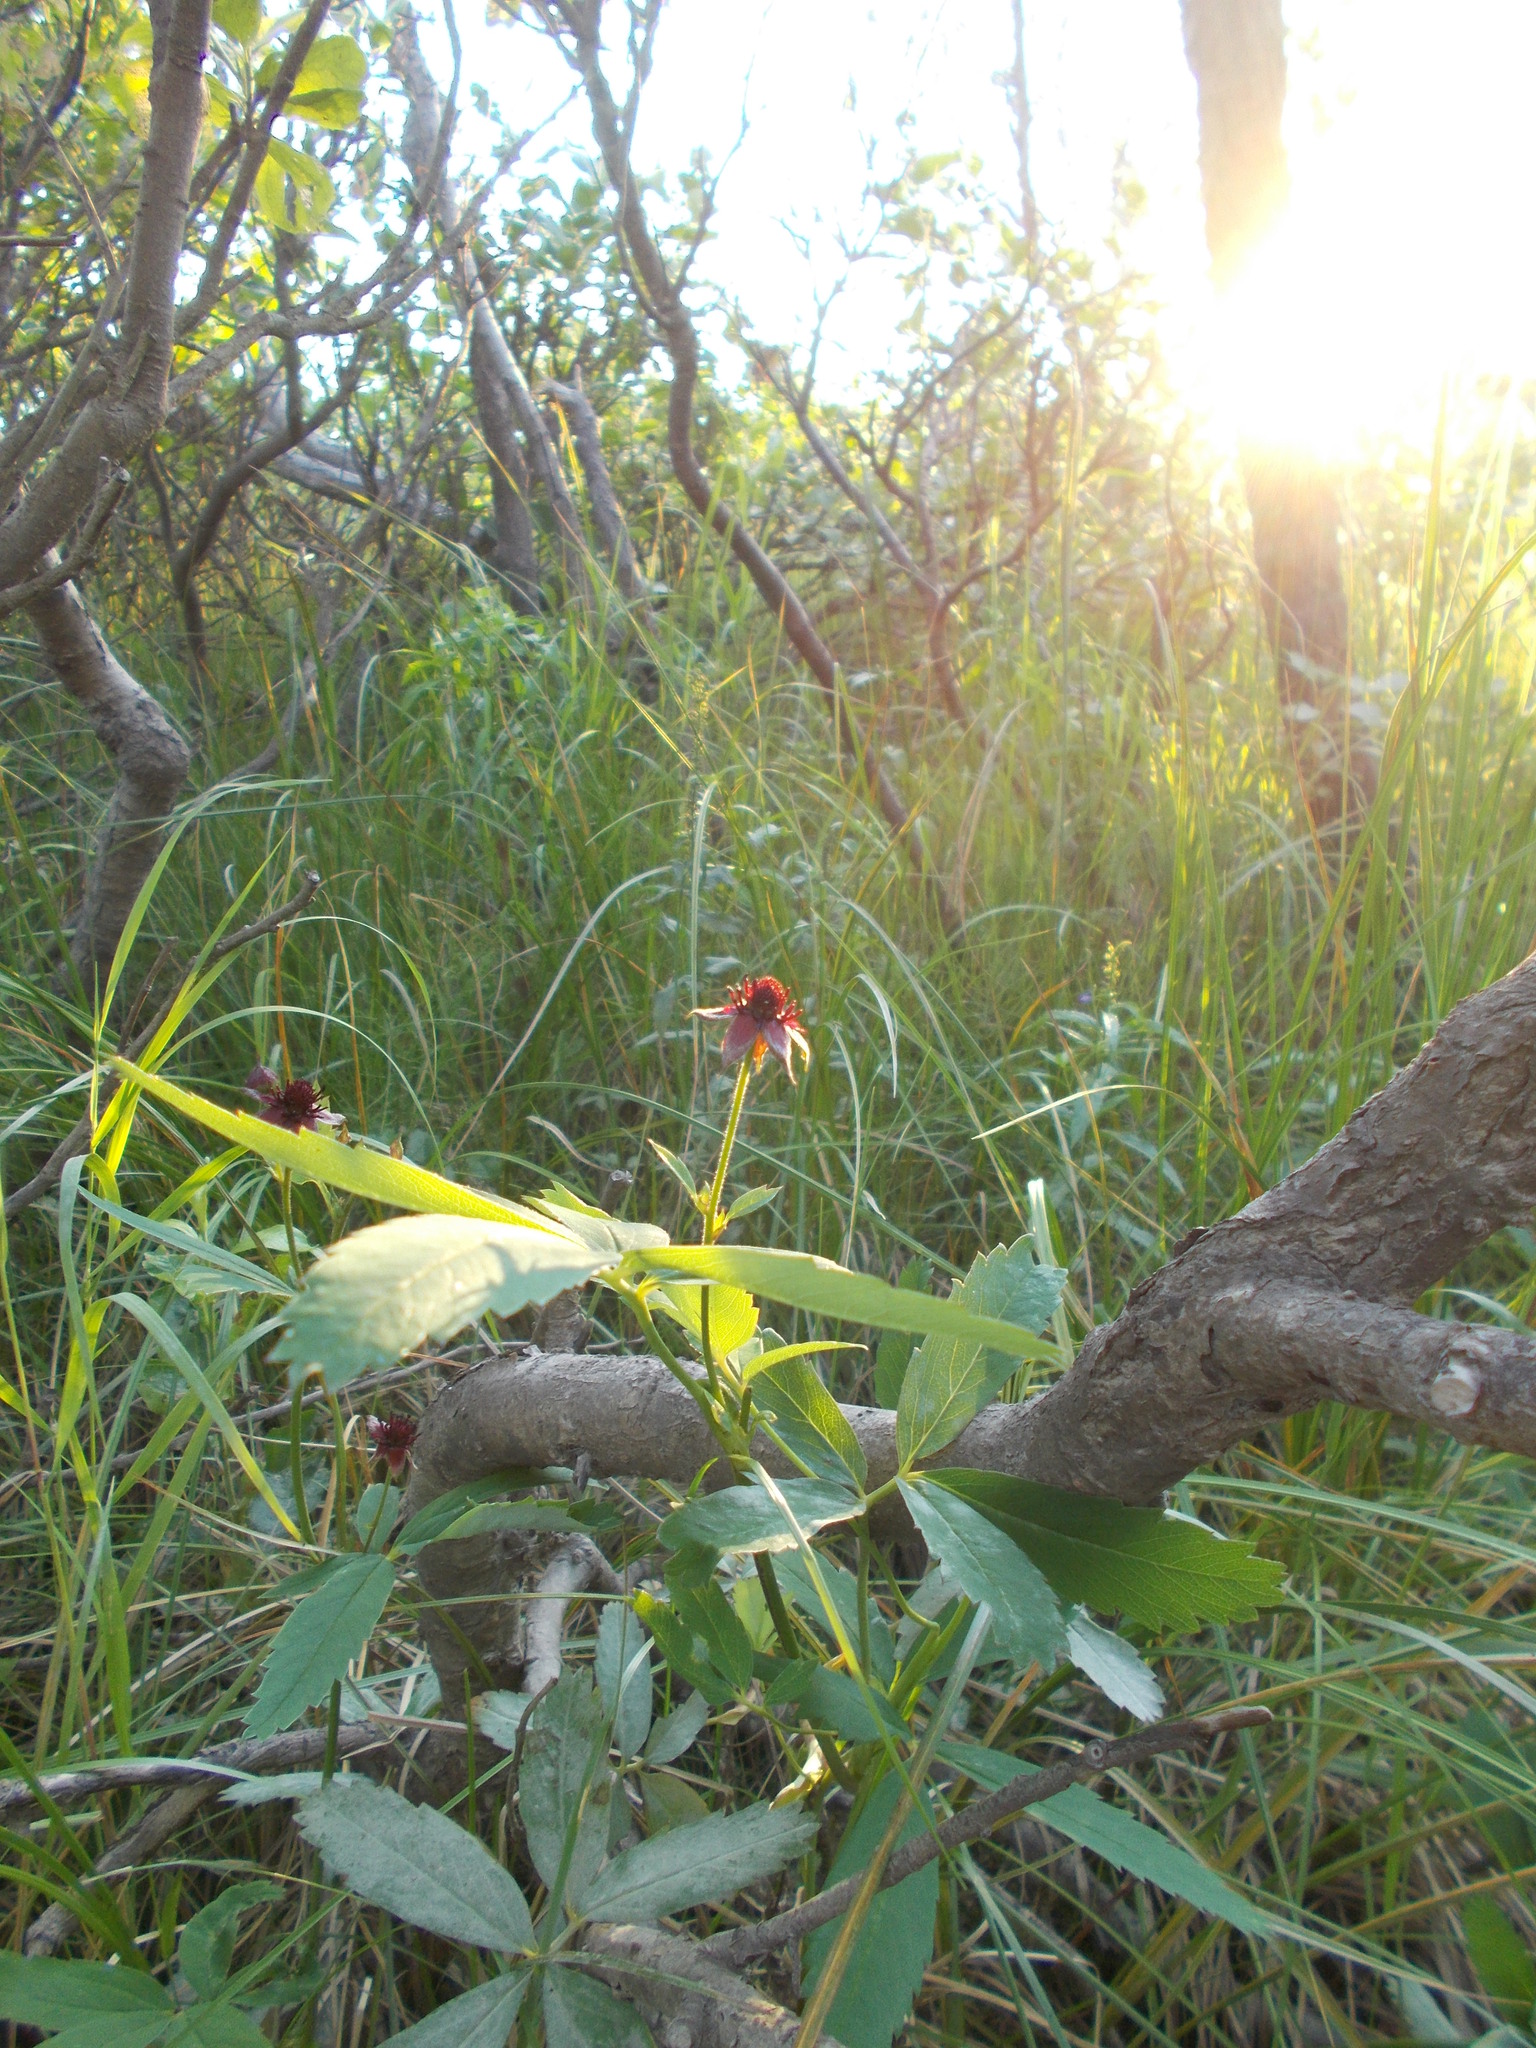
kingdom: Plantae
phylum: Tracheophyta
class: Magnoliopsida
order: Rosales
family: Rosaceae
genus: Comarum
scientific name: Comarum palustre
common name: Marsh cinquefoil
